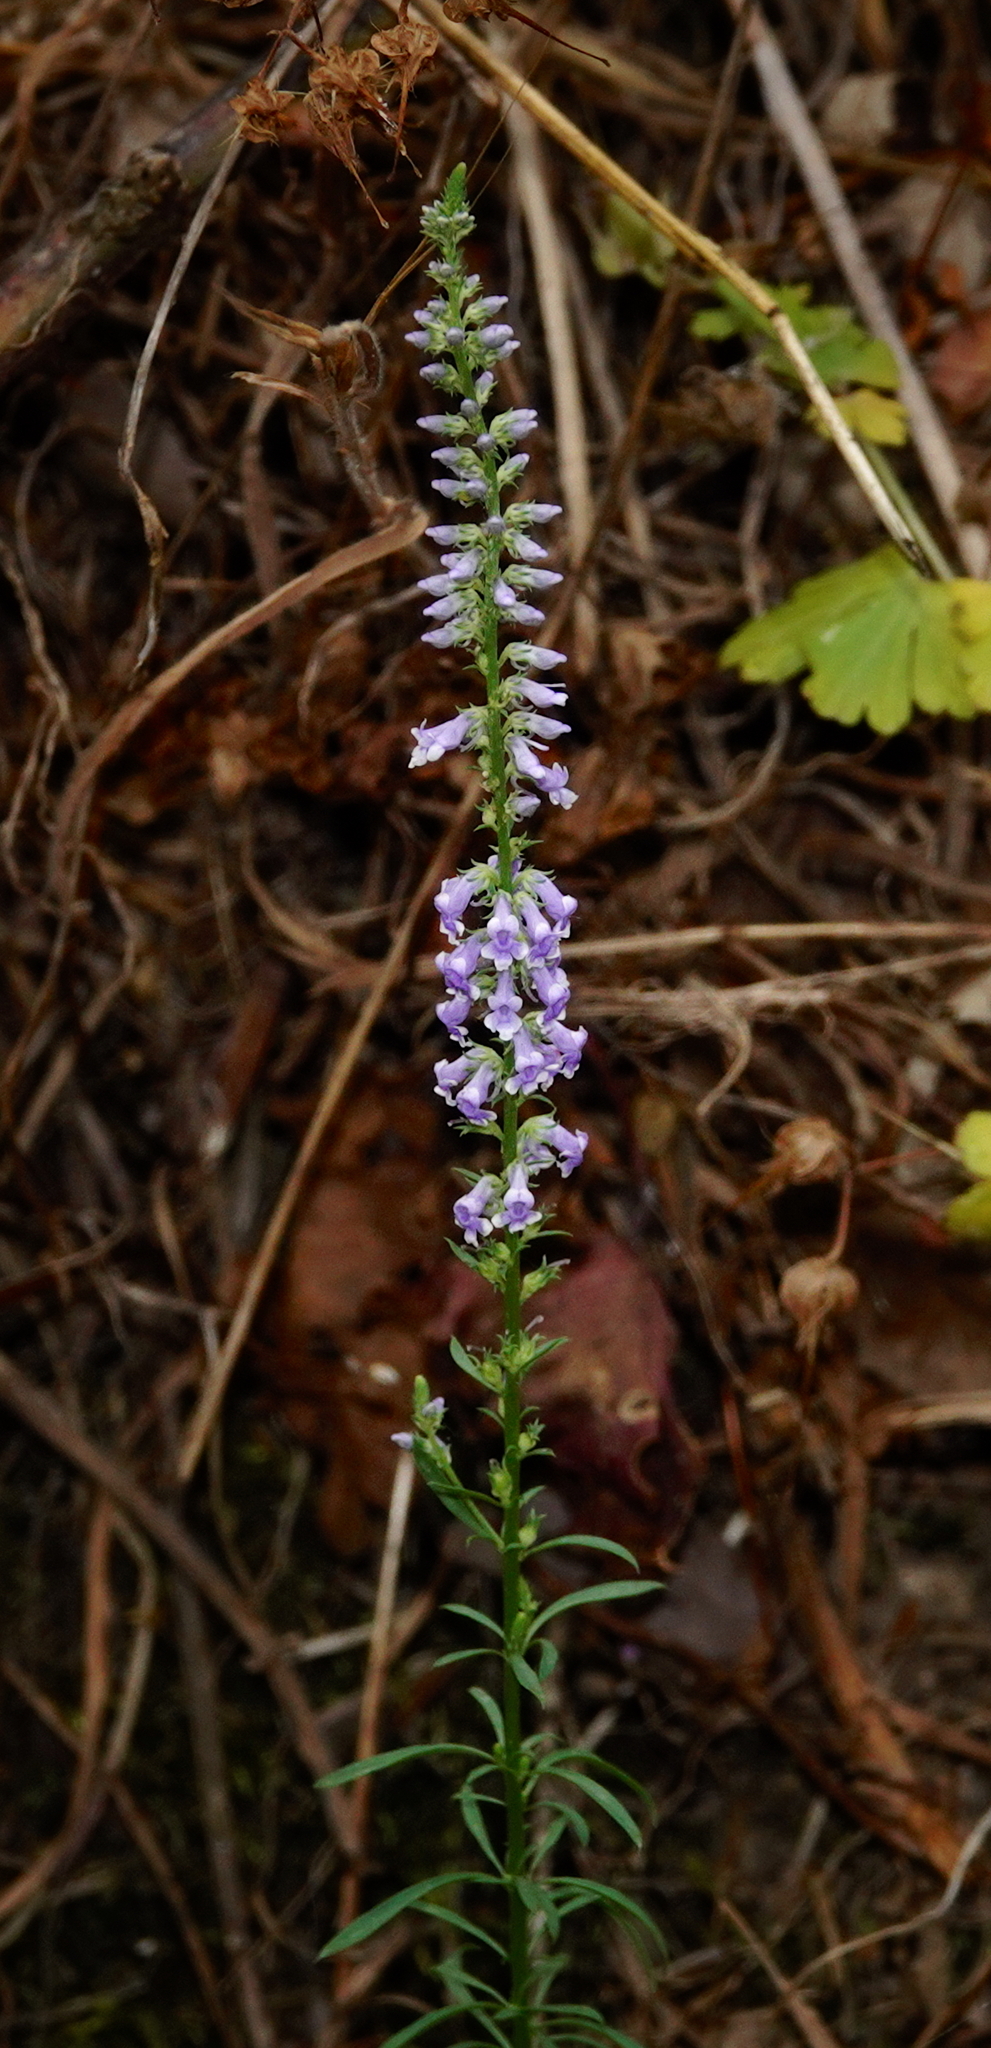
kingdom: Plantae
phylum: Tracheophyta
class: Magnoliopsida
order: Lamiales
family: Plantaginaceae
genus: Anarrhinum
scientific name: Anarrhinum bellidifolium
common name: Daisy-leaved toadflax
